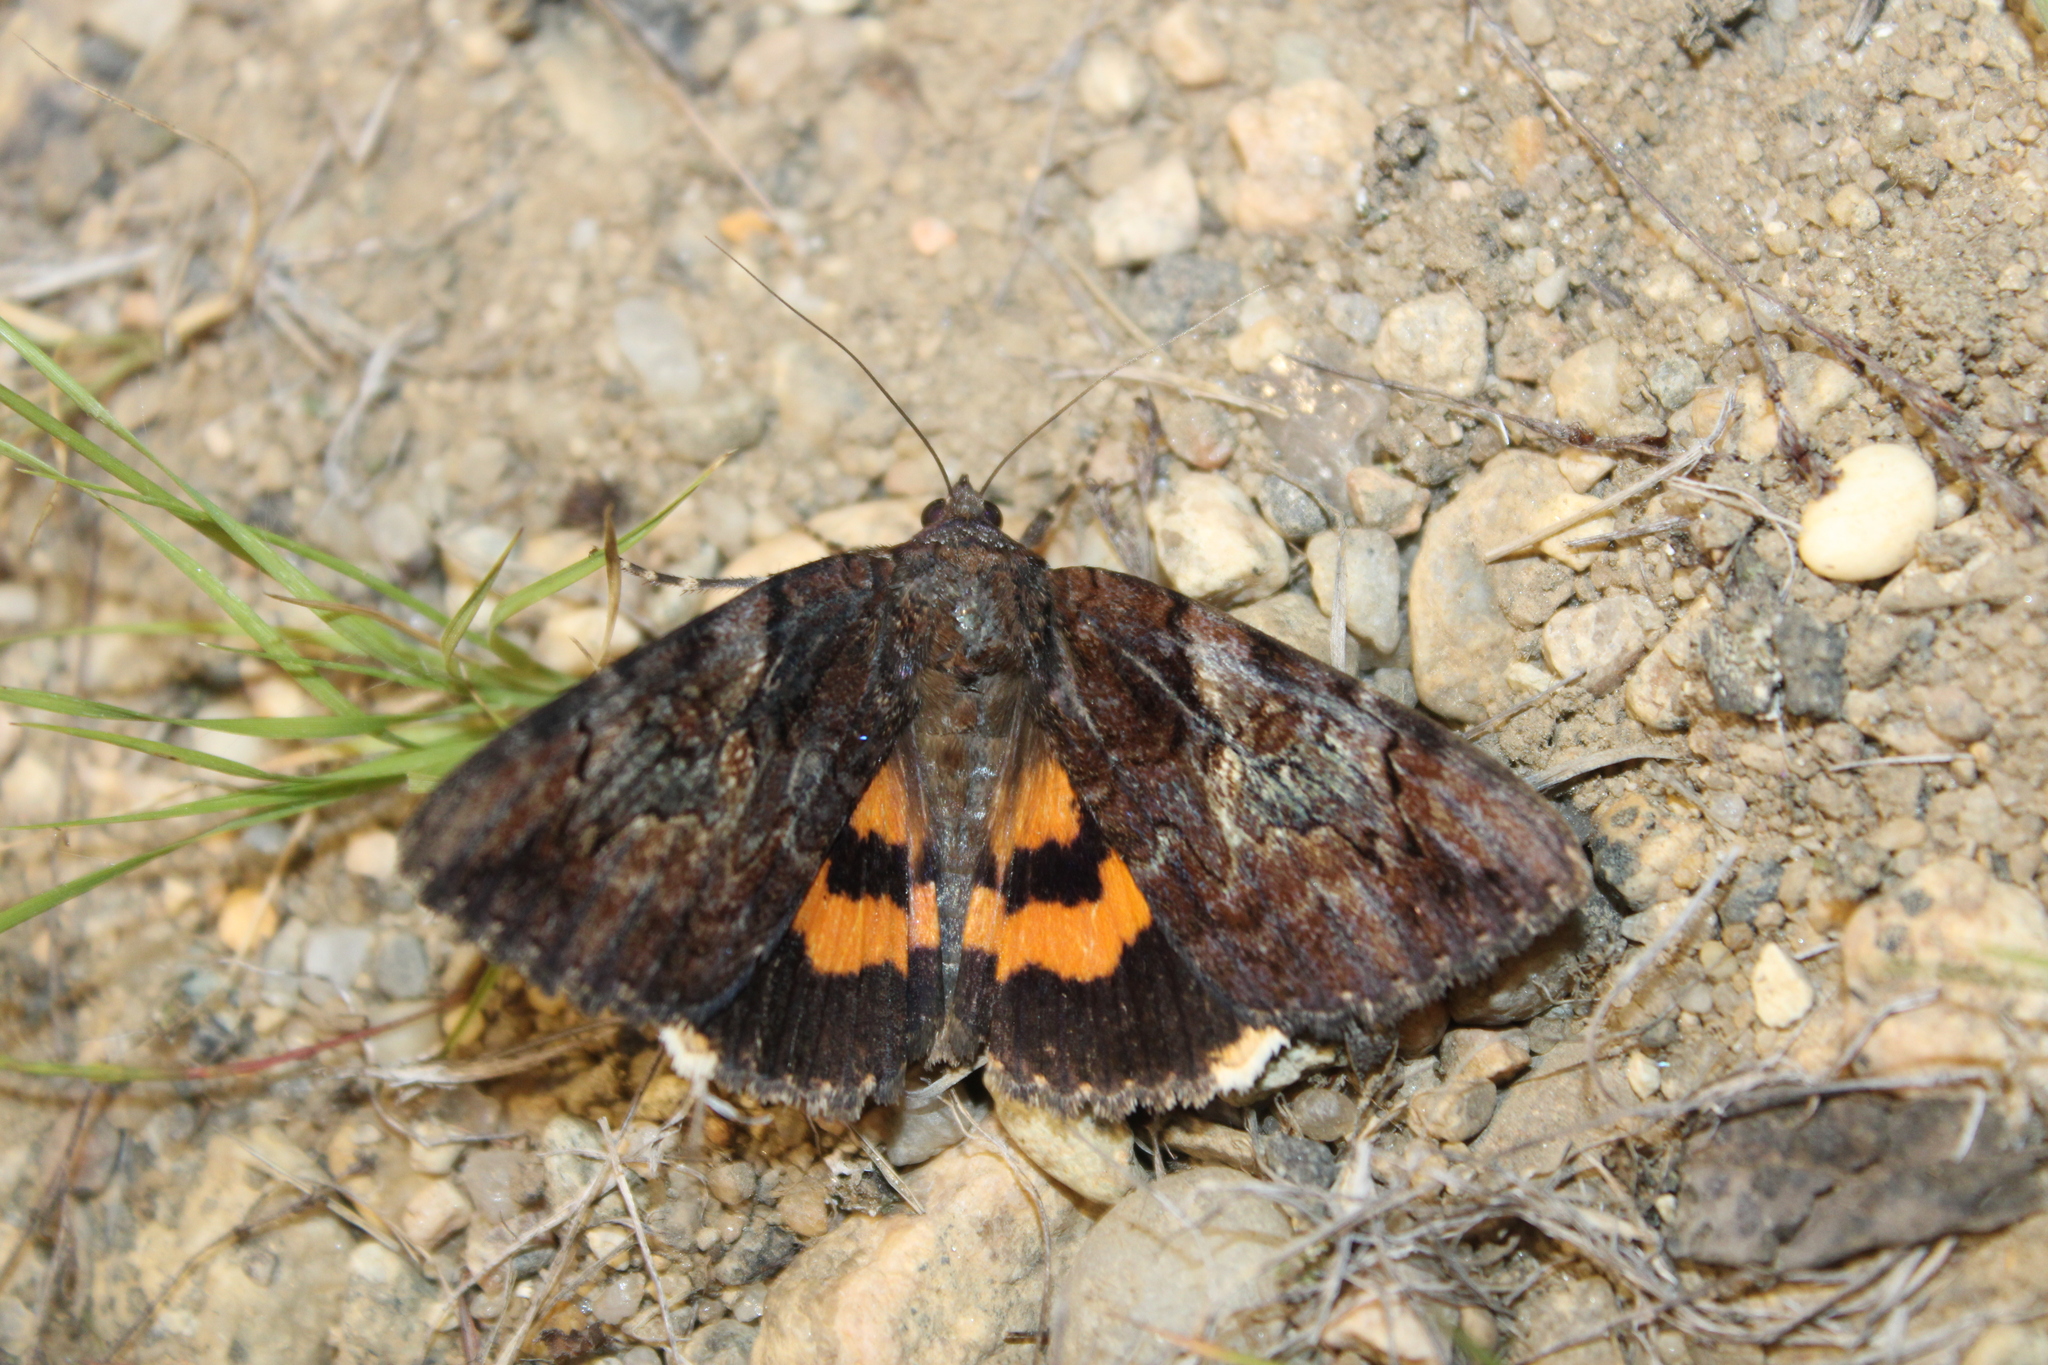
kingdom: Animalia
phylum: Arthropoda
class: Insecta
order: Lepidoptera
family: Erebidae
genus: Catocala
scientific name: Catocala muliercula
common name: The little wife underwing
